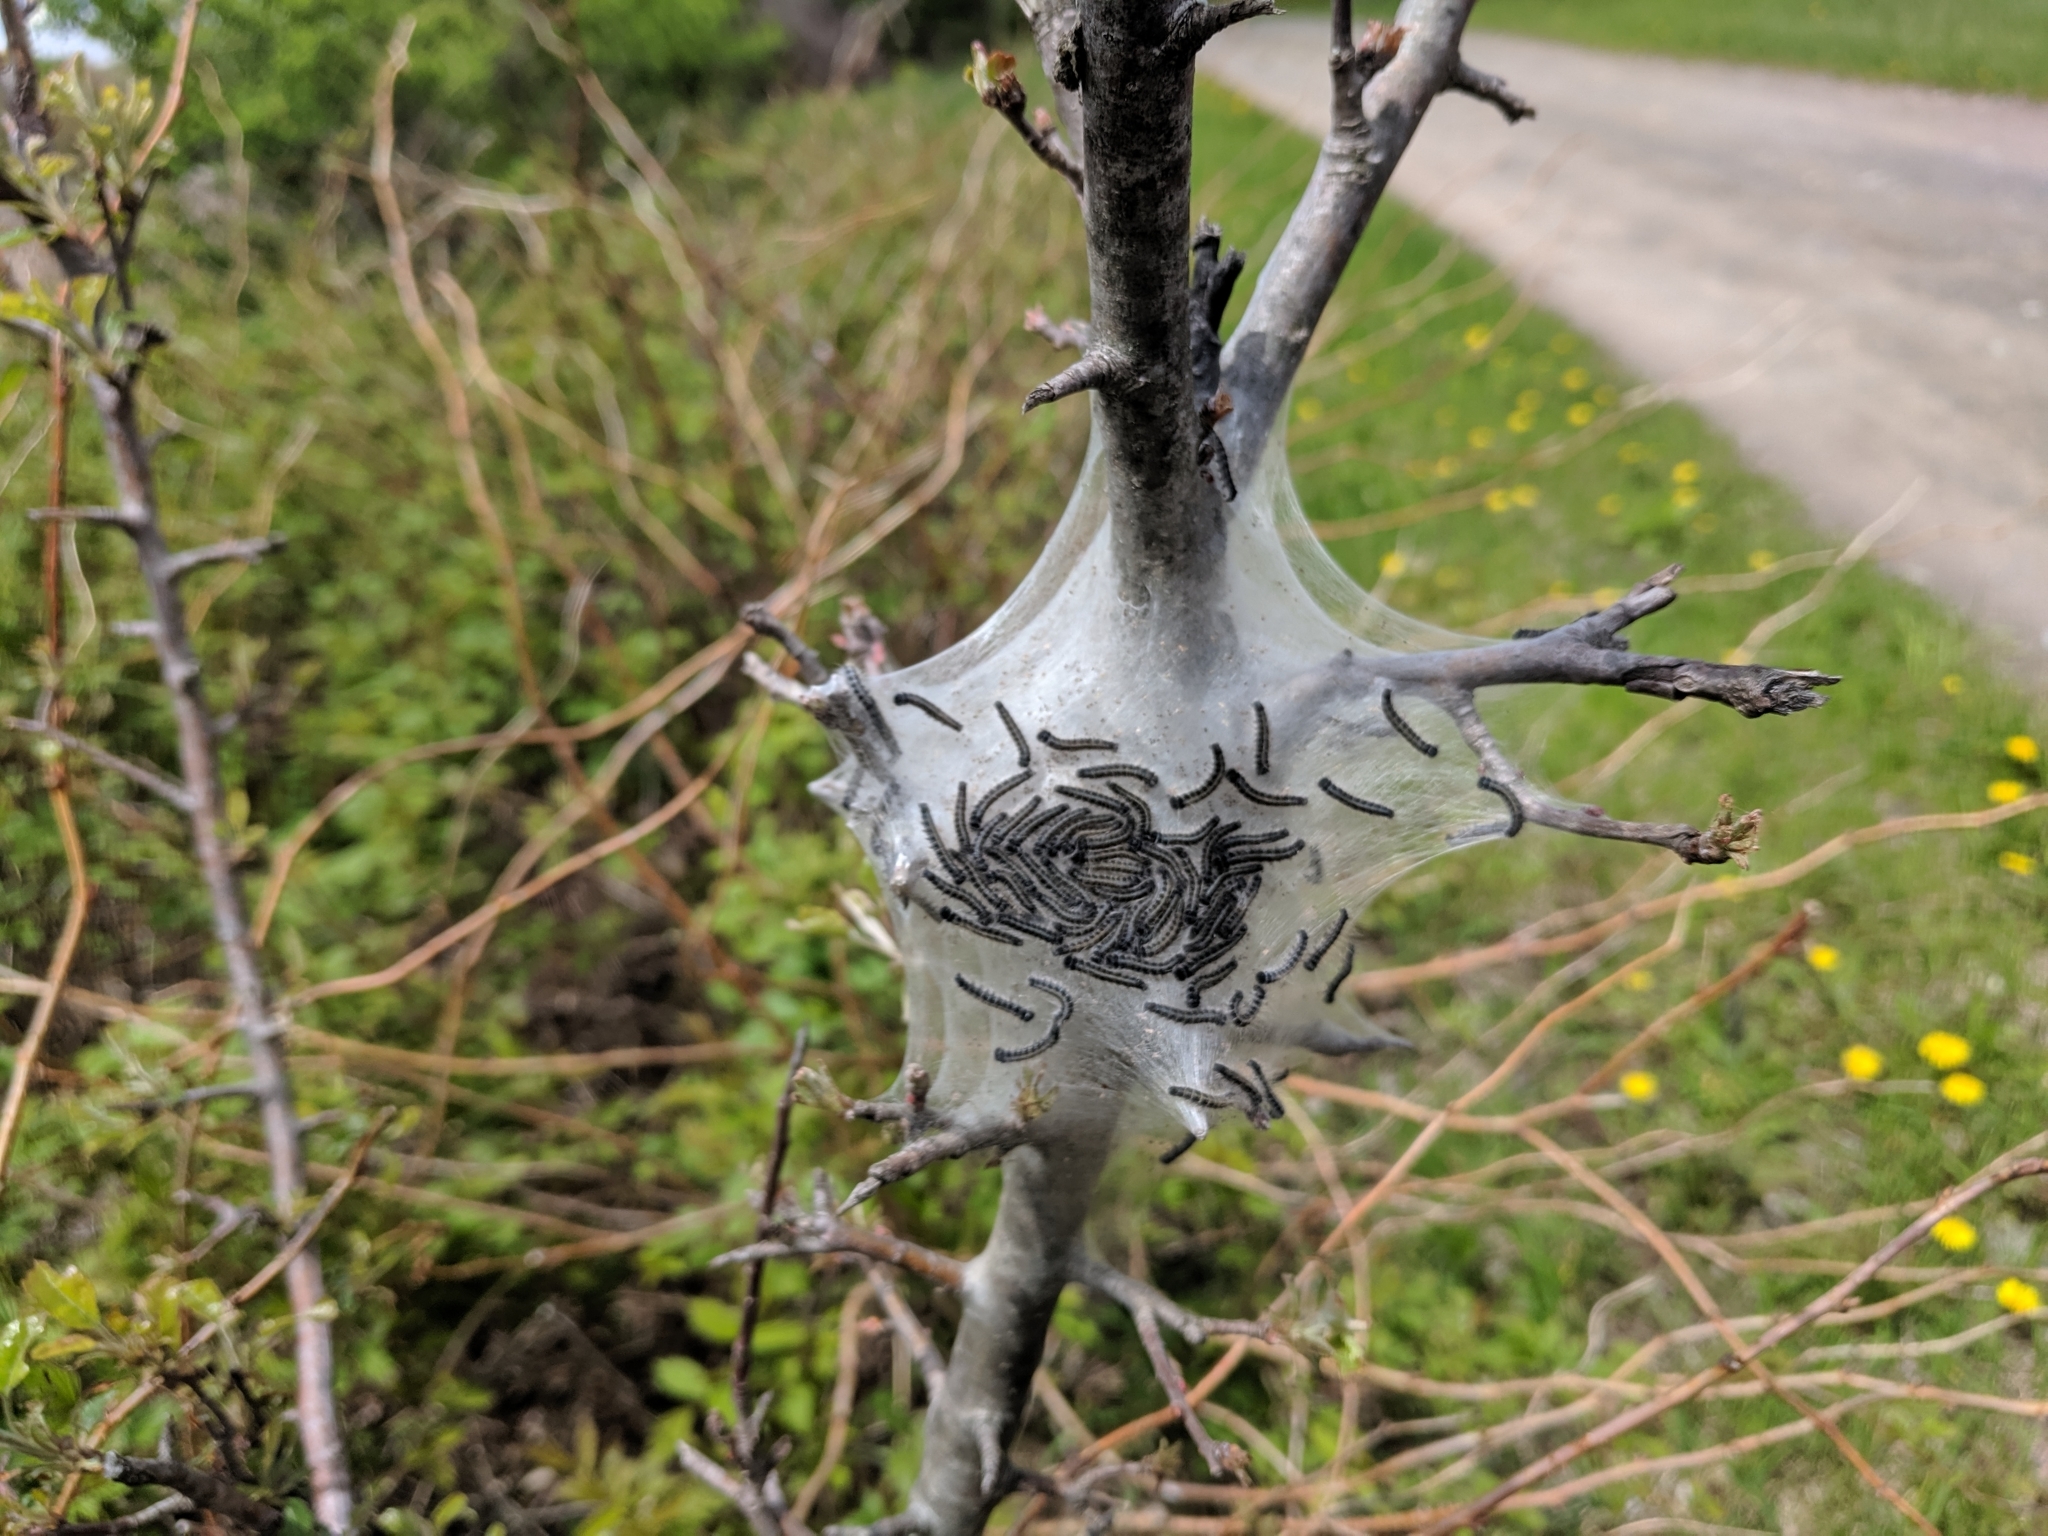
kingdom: Animalia
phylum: Arthropoda
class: Insecta
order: Lepidoptera
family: Lasiocampidae
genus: Malacosoma
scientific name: Malacosoma americana
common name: Eastern tent caterpillar moth
